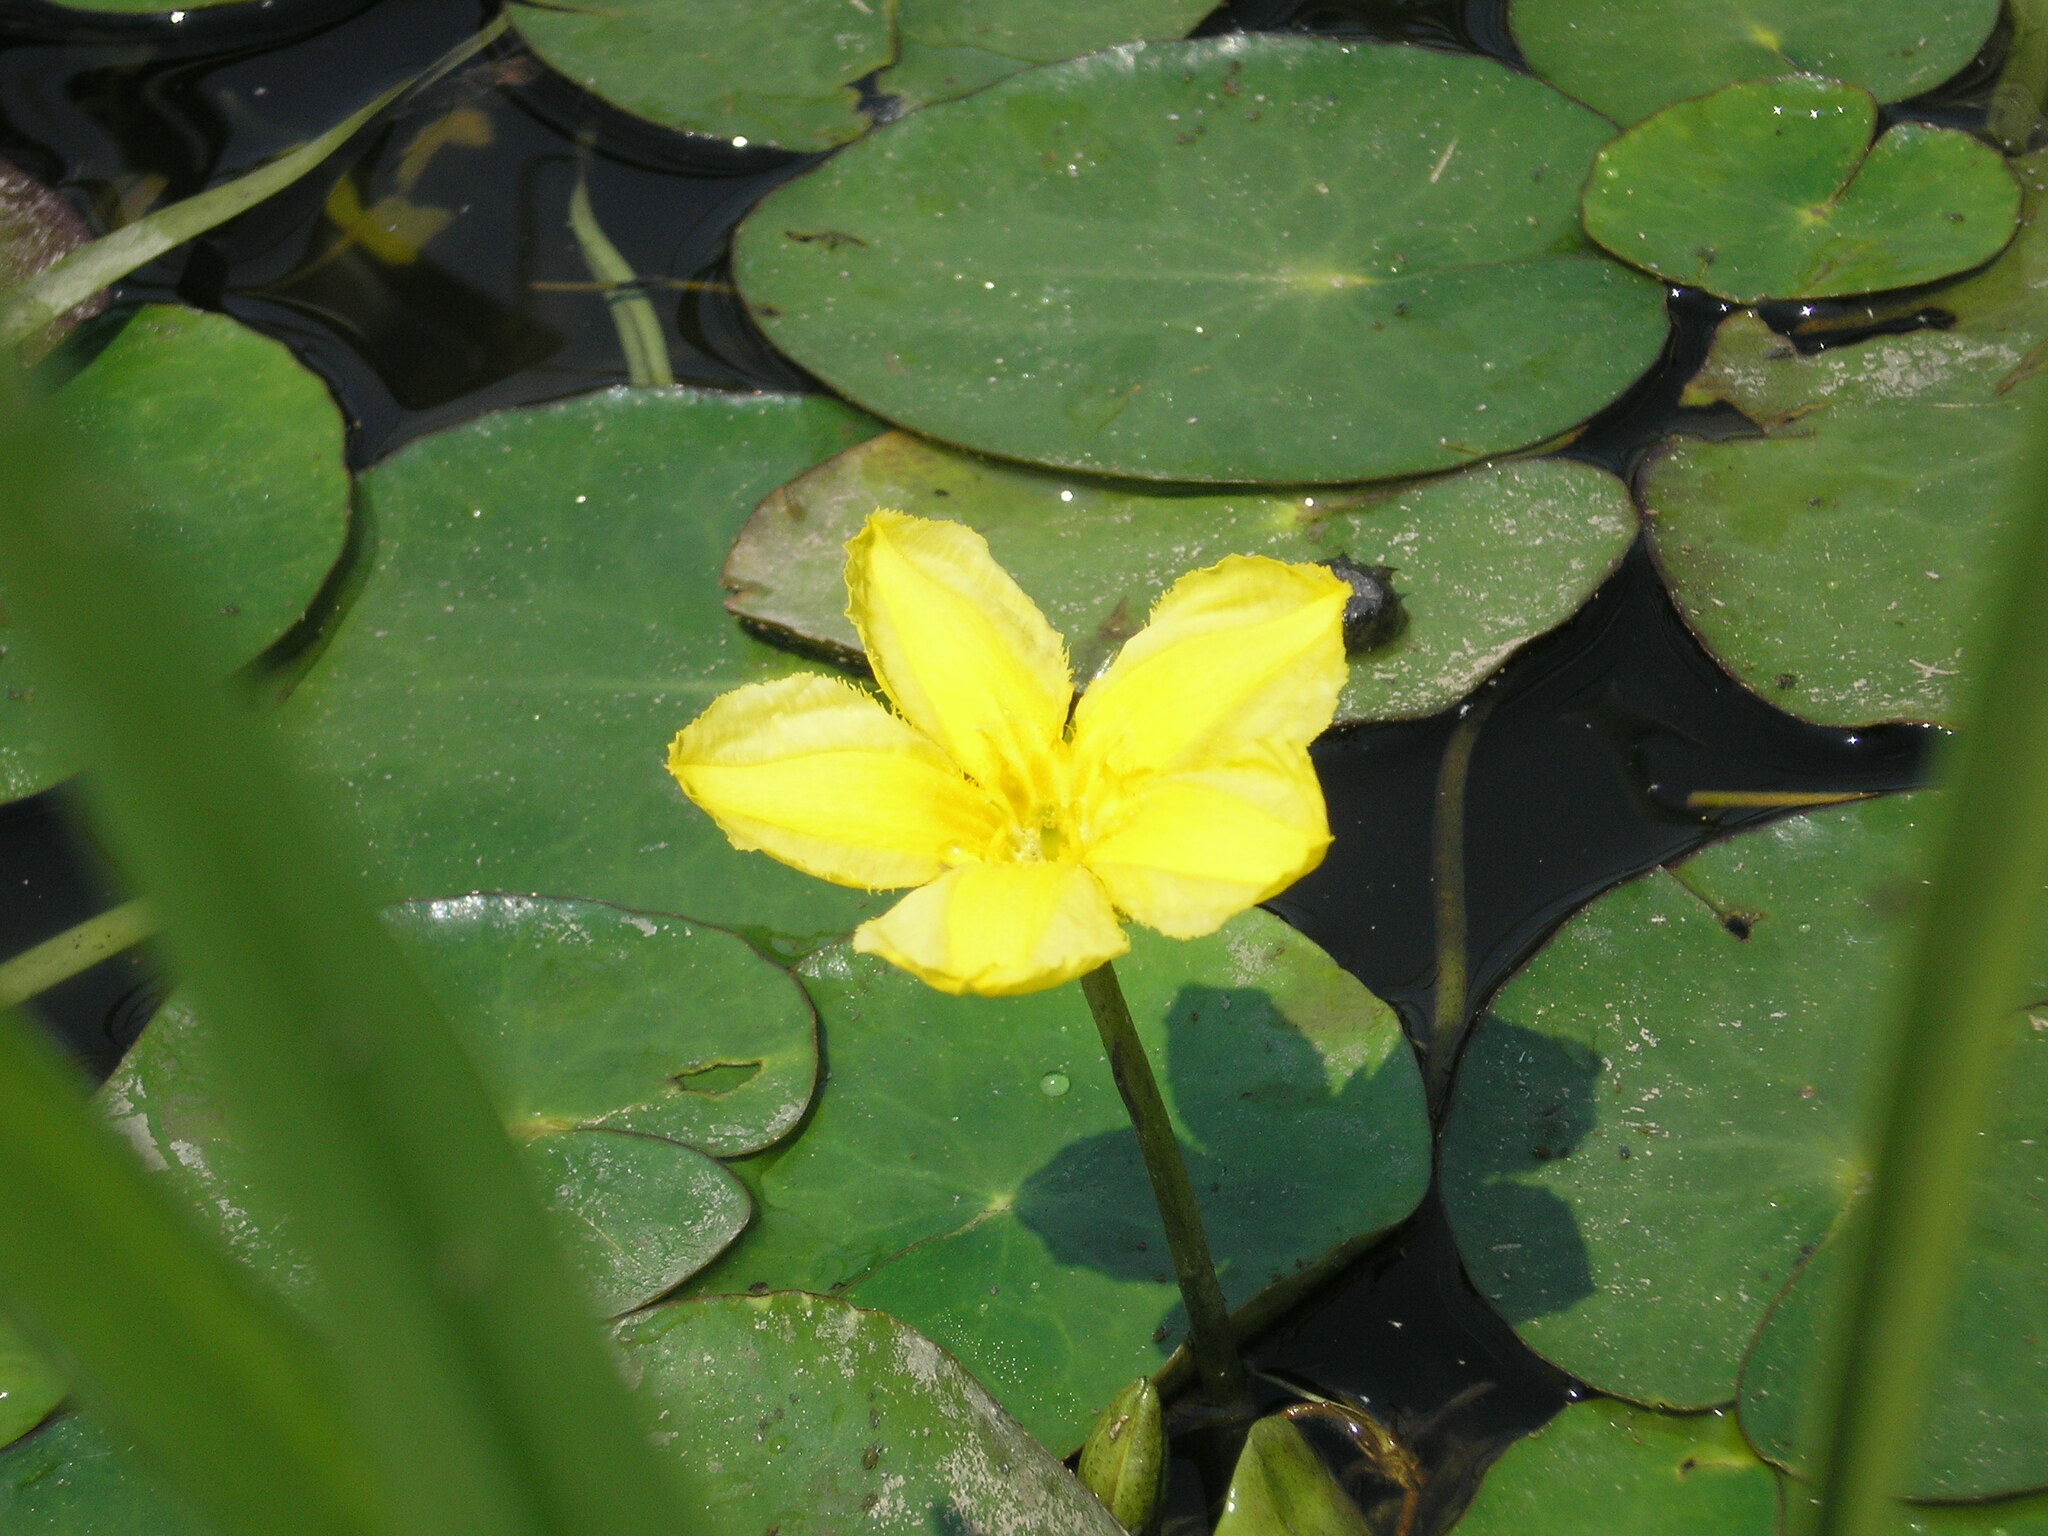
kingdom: Plantae
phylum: Tracheophyta
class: Magnoliopsida
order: Asterales
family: Menyanthaceae
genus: Nymphoides
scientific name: Nymphoides peltata
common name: Fringed water-lily
